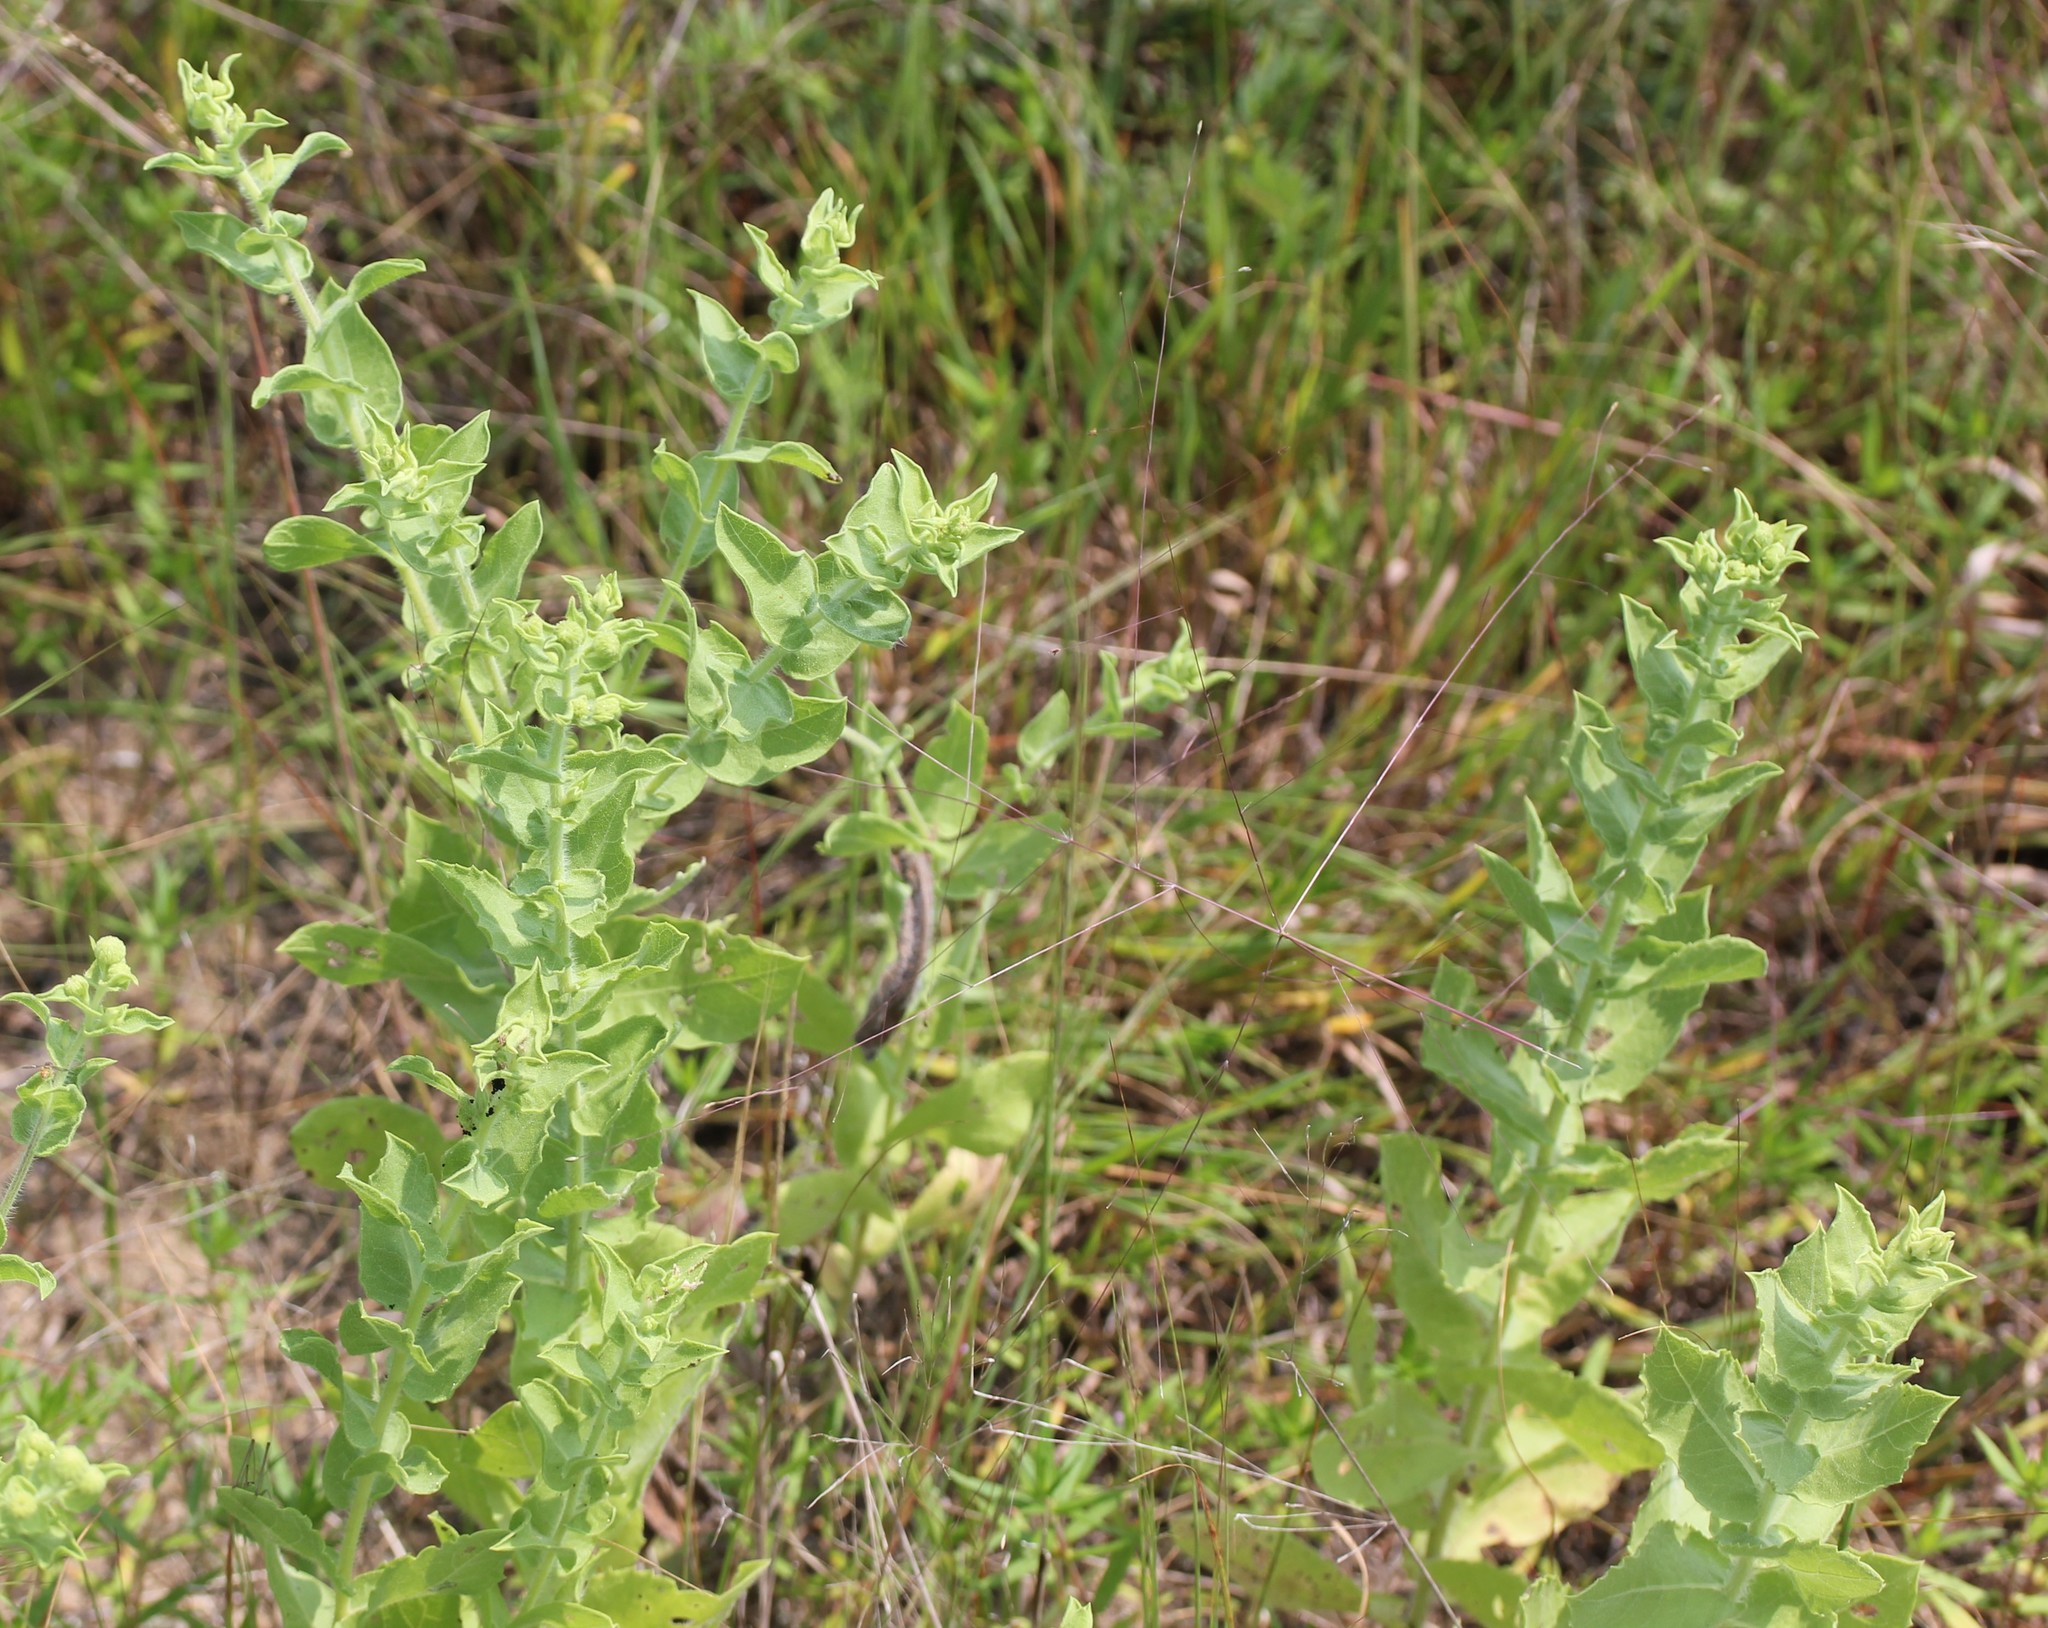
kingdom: Plantae
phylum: Tracheophyta
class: Magnoliopsida
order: Asterales
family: Asteraceae
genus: Heterotheca
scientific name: Heterotheca subaxillaris
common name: Camphorweed
